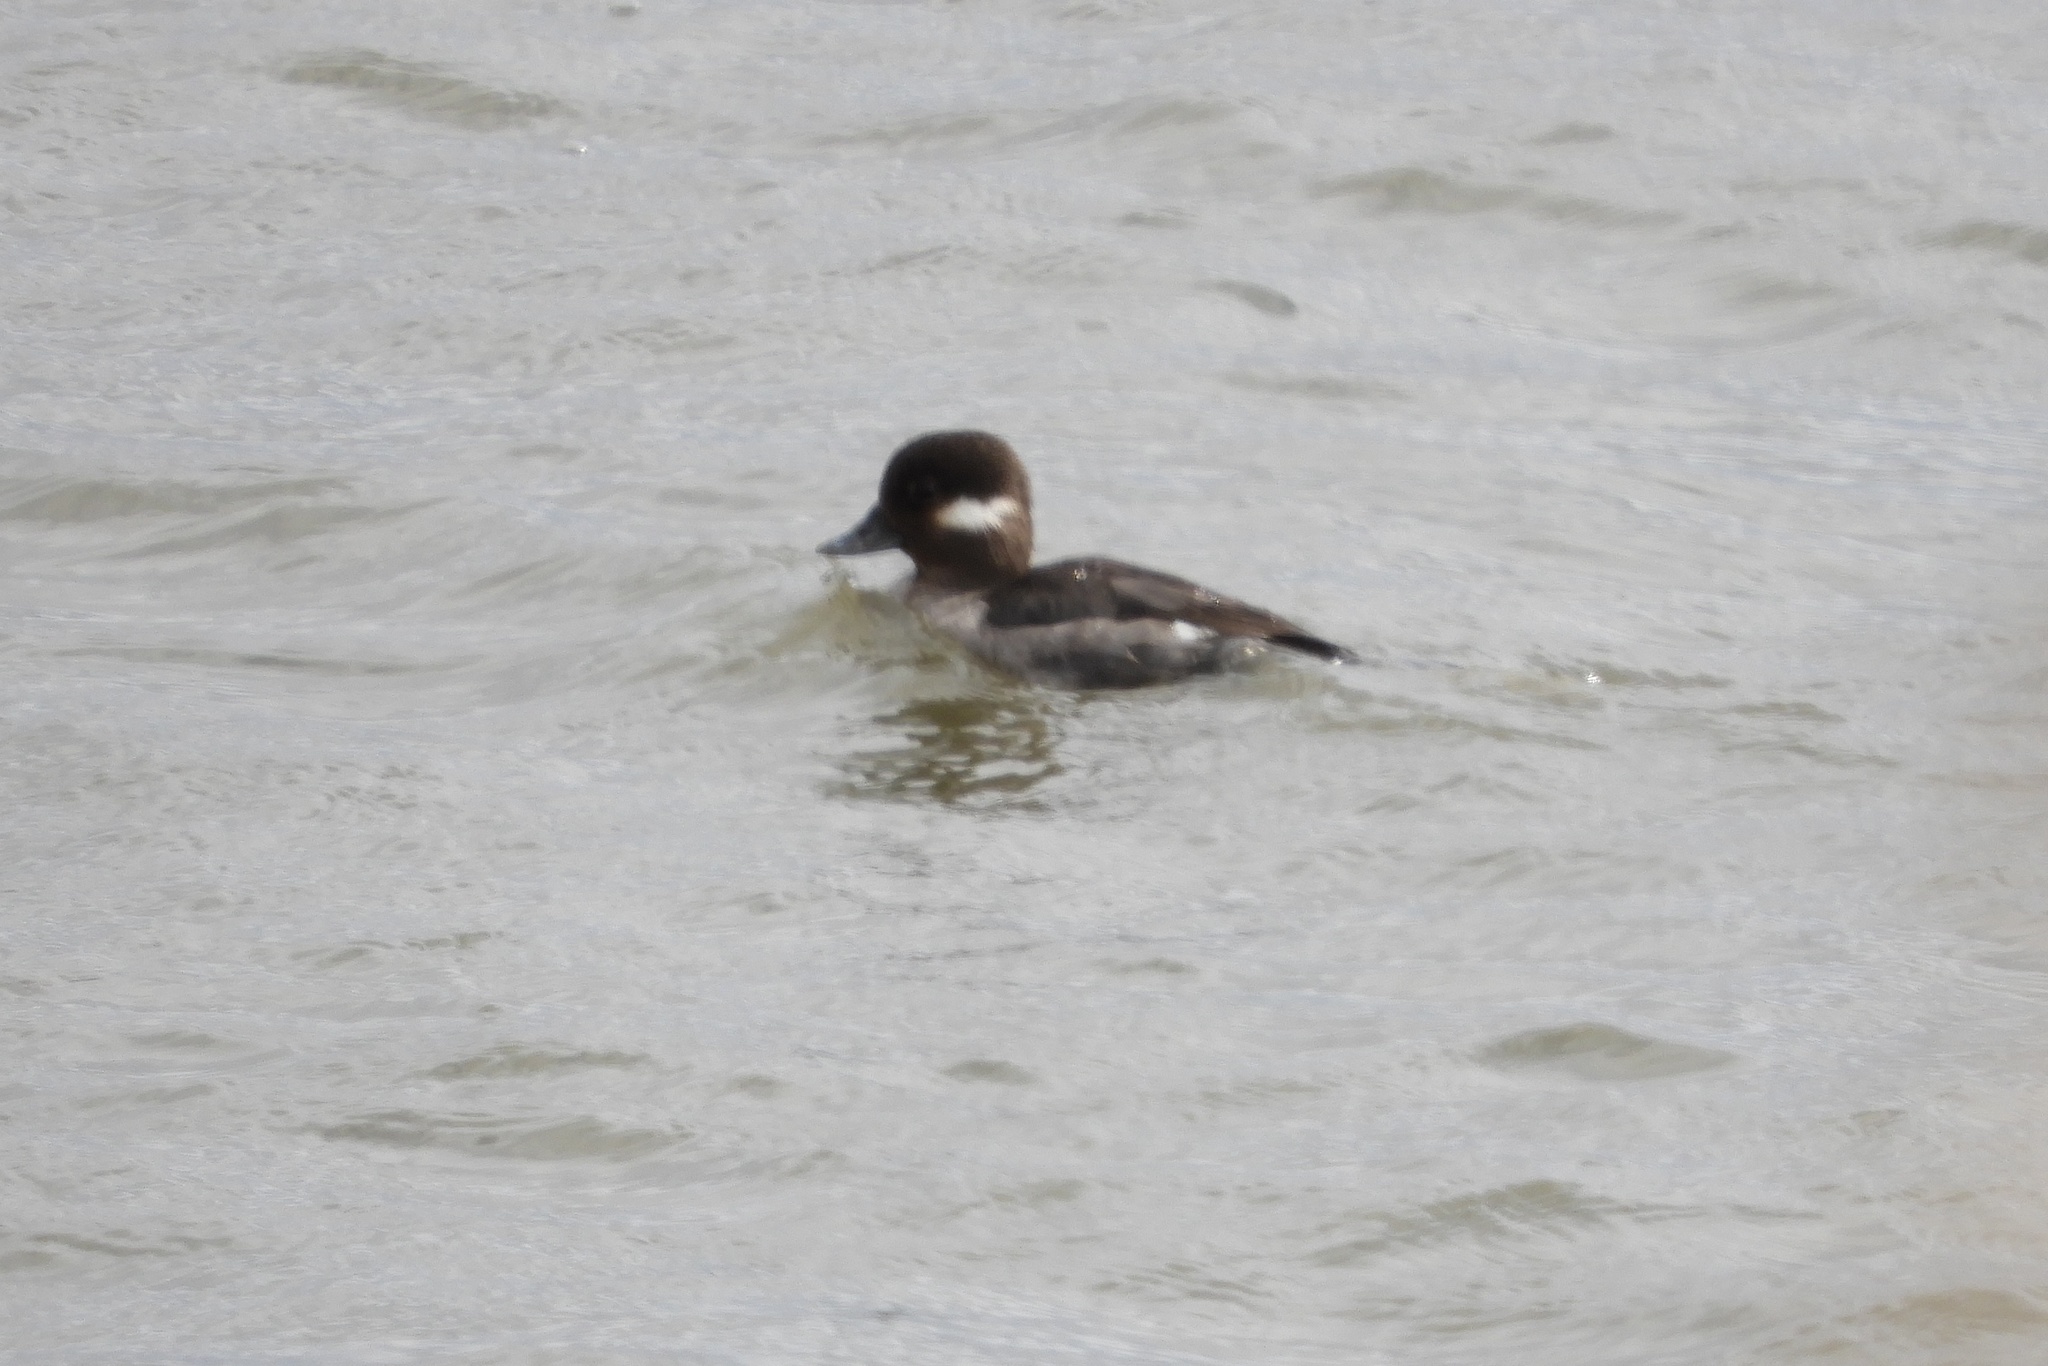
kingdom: Animalia
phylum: Chordata
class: Aves
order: Anseriformes
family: Anatidae
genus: Bucephala
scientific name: Bucephala albeola
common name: Bufflehead
